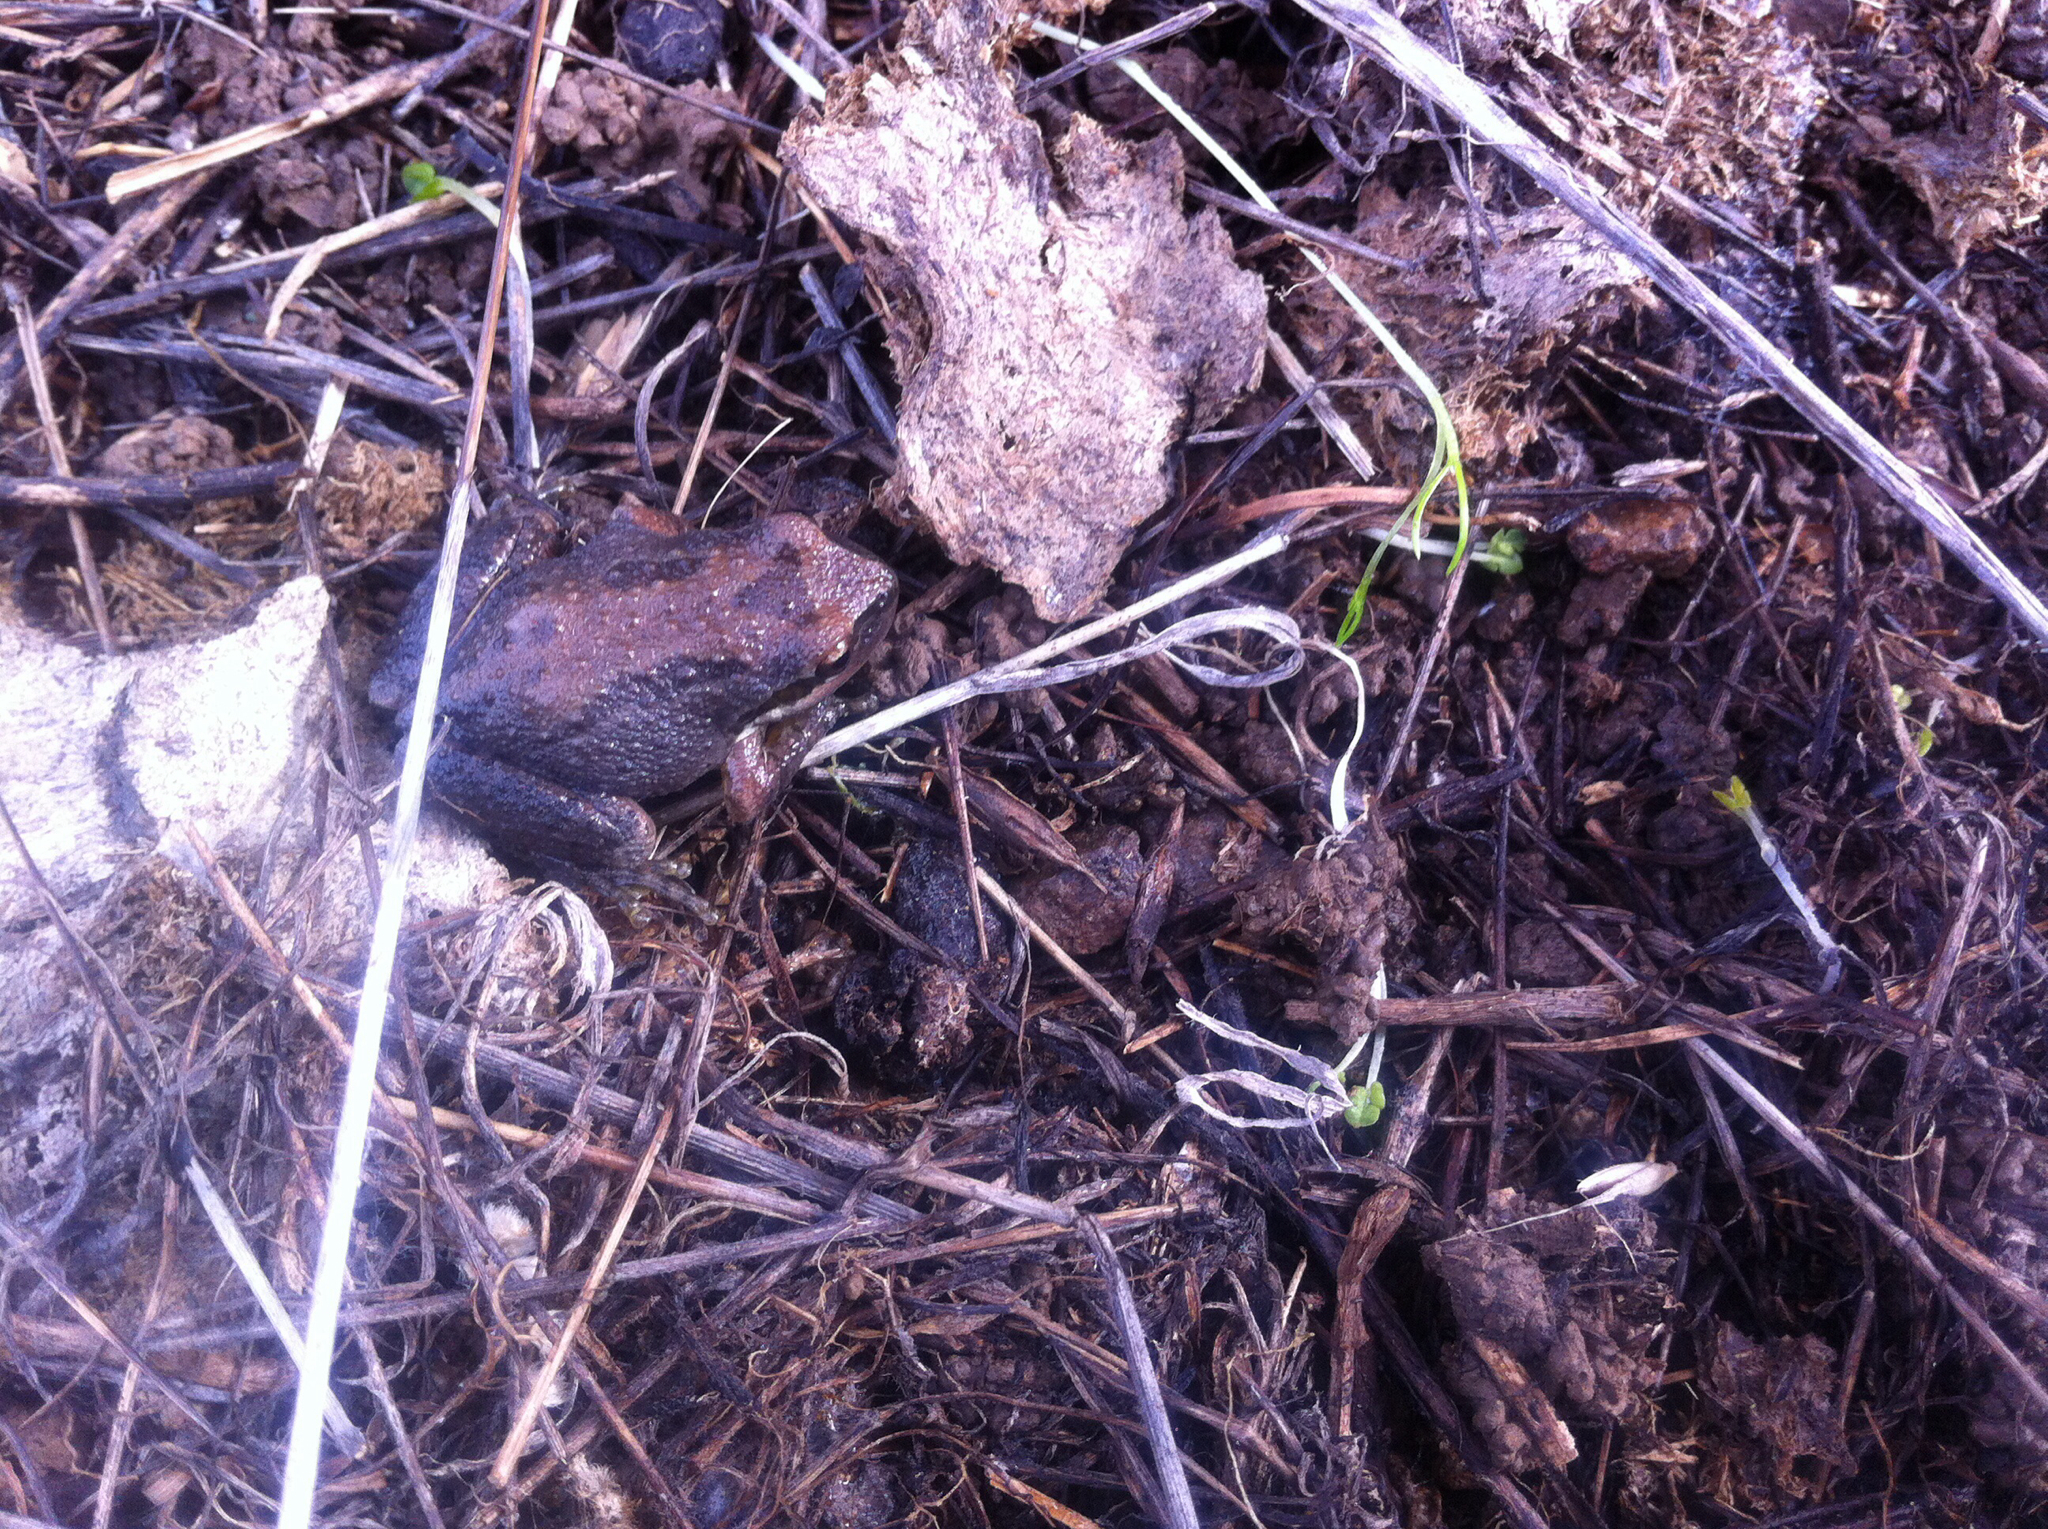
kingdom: Animalia
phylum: Chordata
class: Amphibia
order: Anura
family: Hylidae
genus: Pseudacris
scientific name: Pseudacris regilla
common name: Pacific chorus frog
